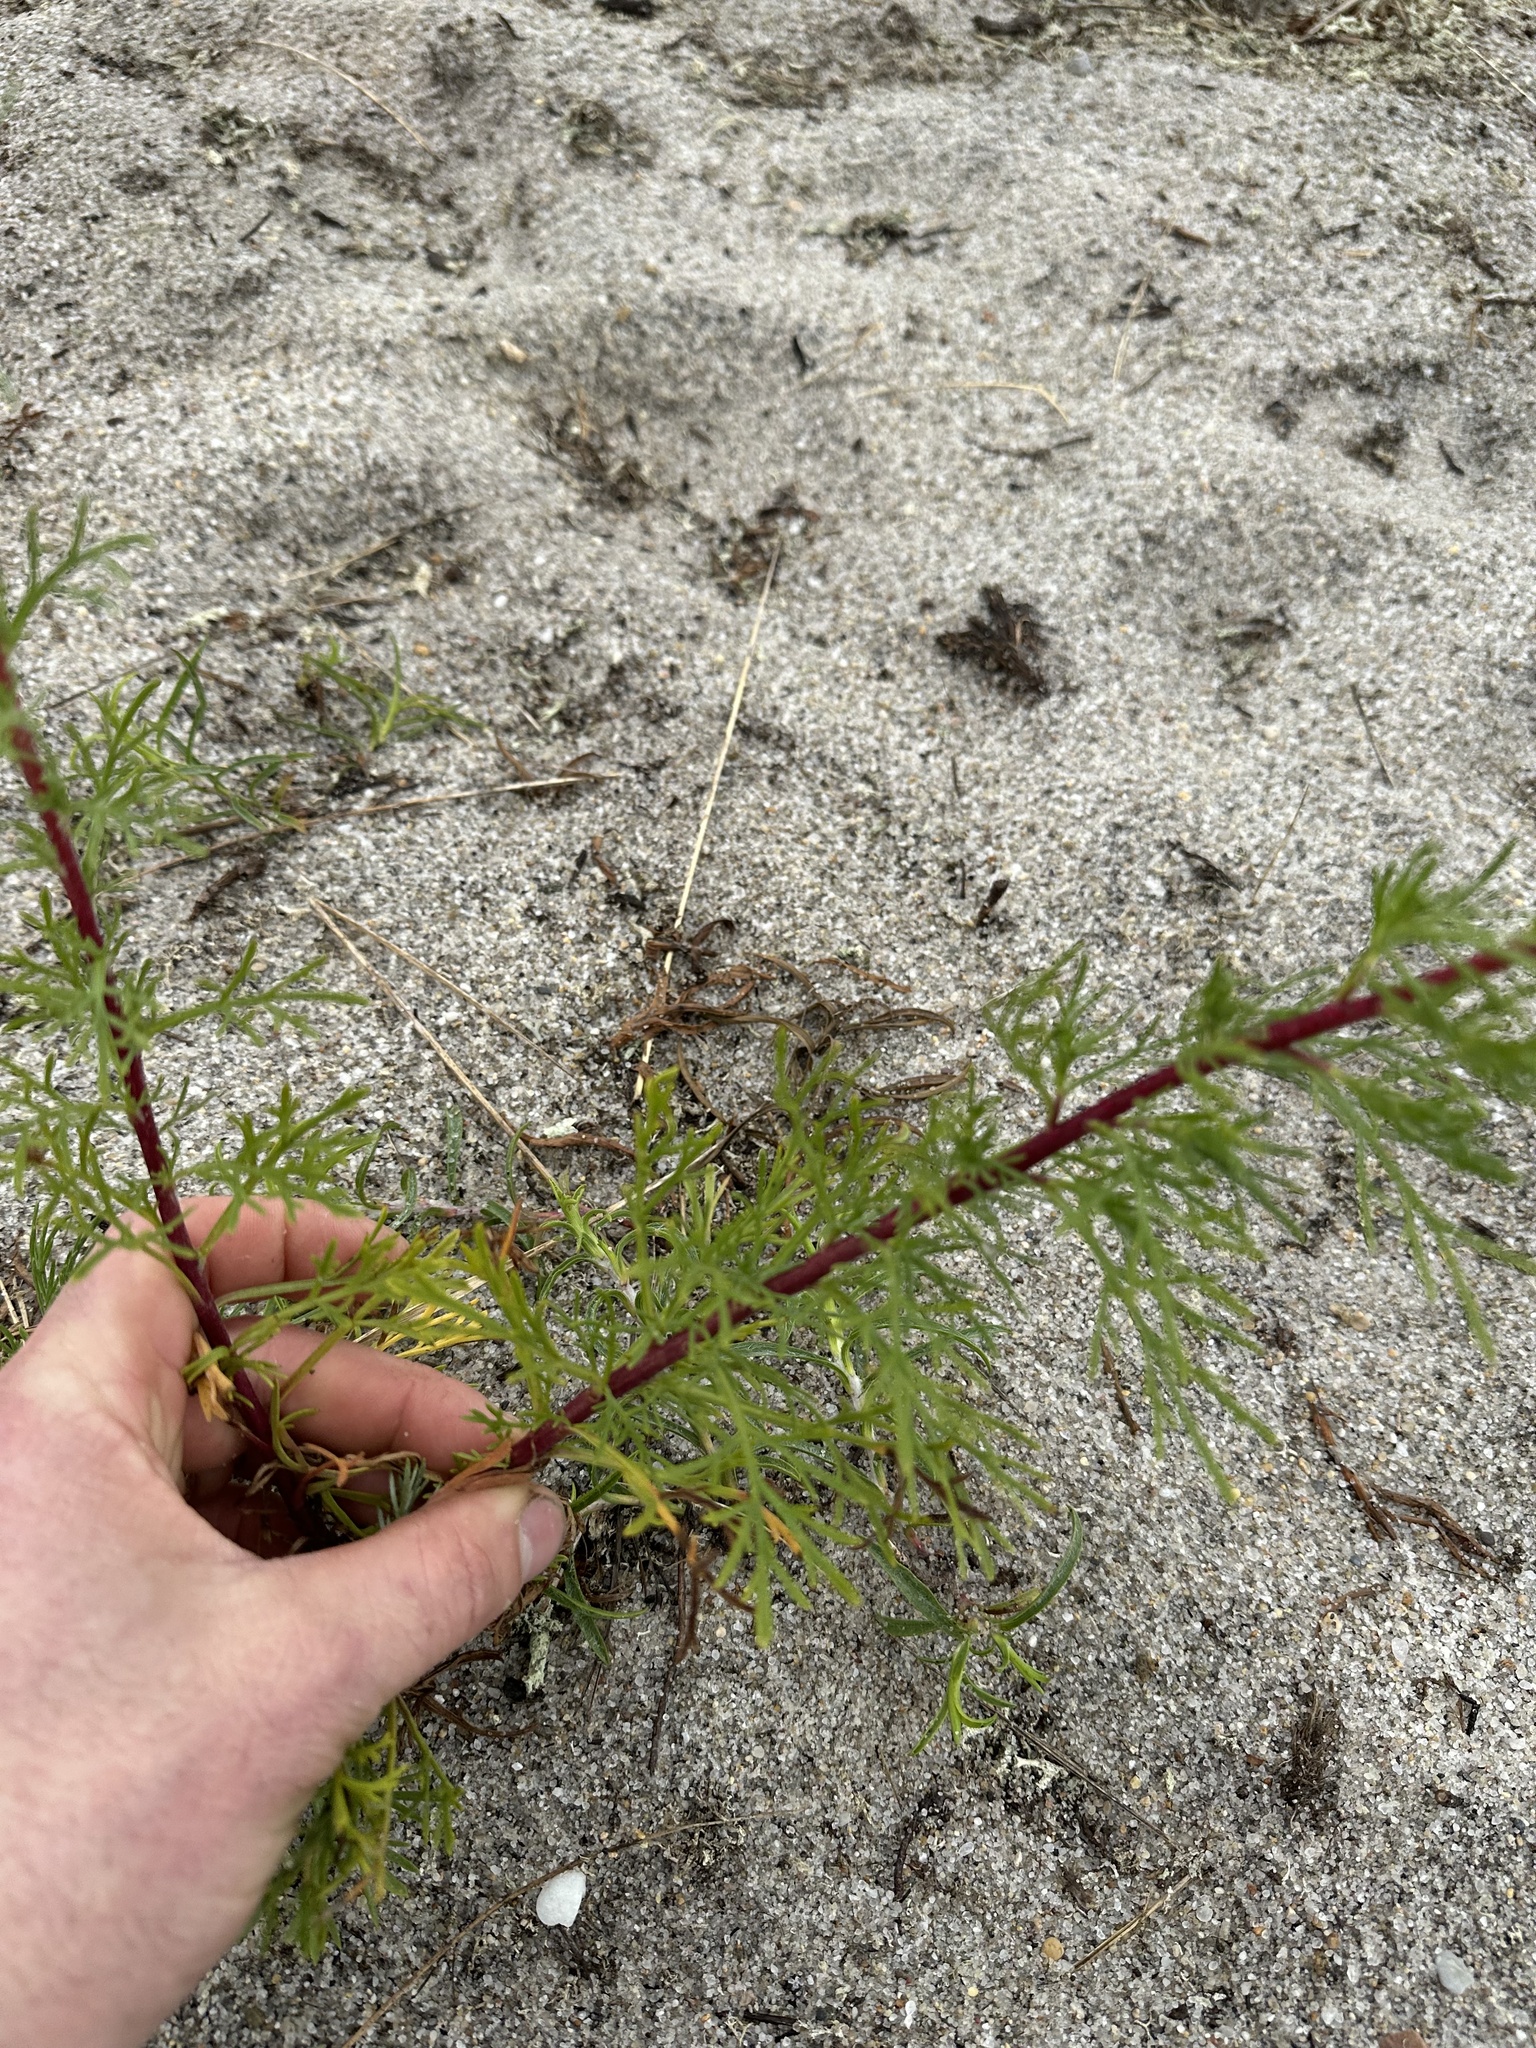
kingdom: Plantae
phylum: Tracheophyta
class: Magnoliopsida
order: Asterales
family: Asteraceae
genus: Artemisia
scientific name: Artemisia campestris
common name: Field wormwood
